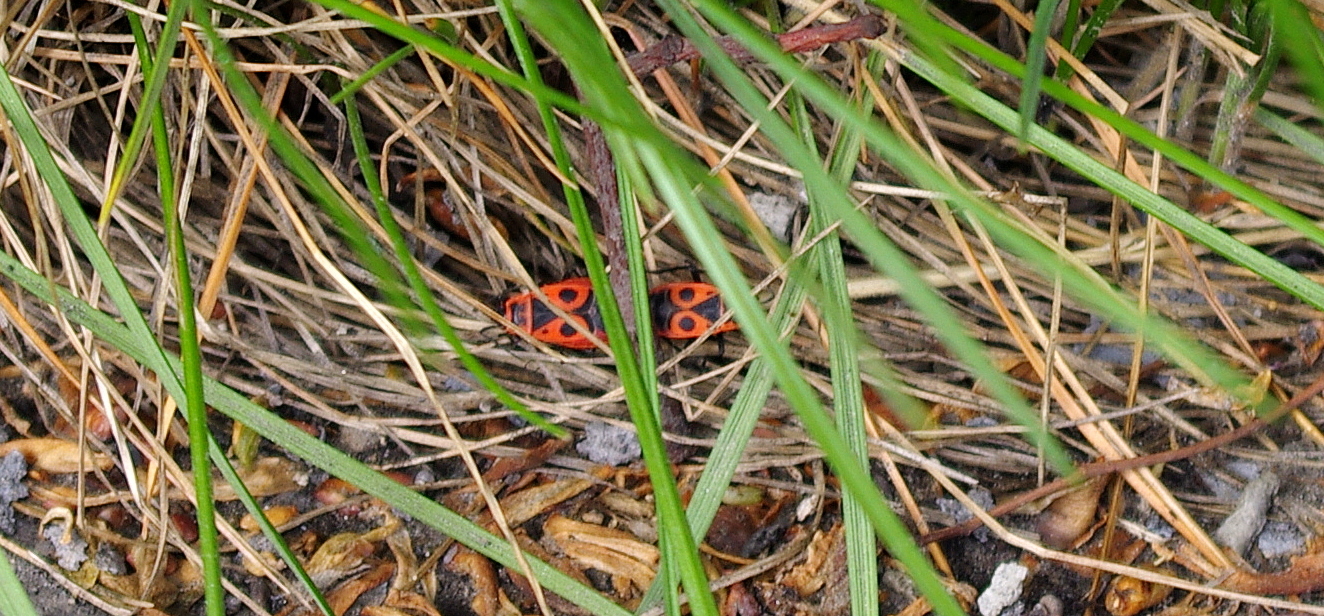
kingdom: Animalia
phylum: Arthropoda
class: Insecta
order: Hemiptera
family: Pyrrhocoridae
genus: Pyrrhocoris
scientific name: Pyrrhocoris apterus
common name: Firebug
